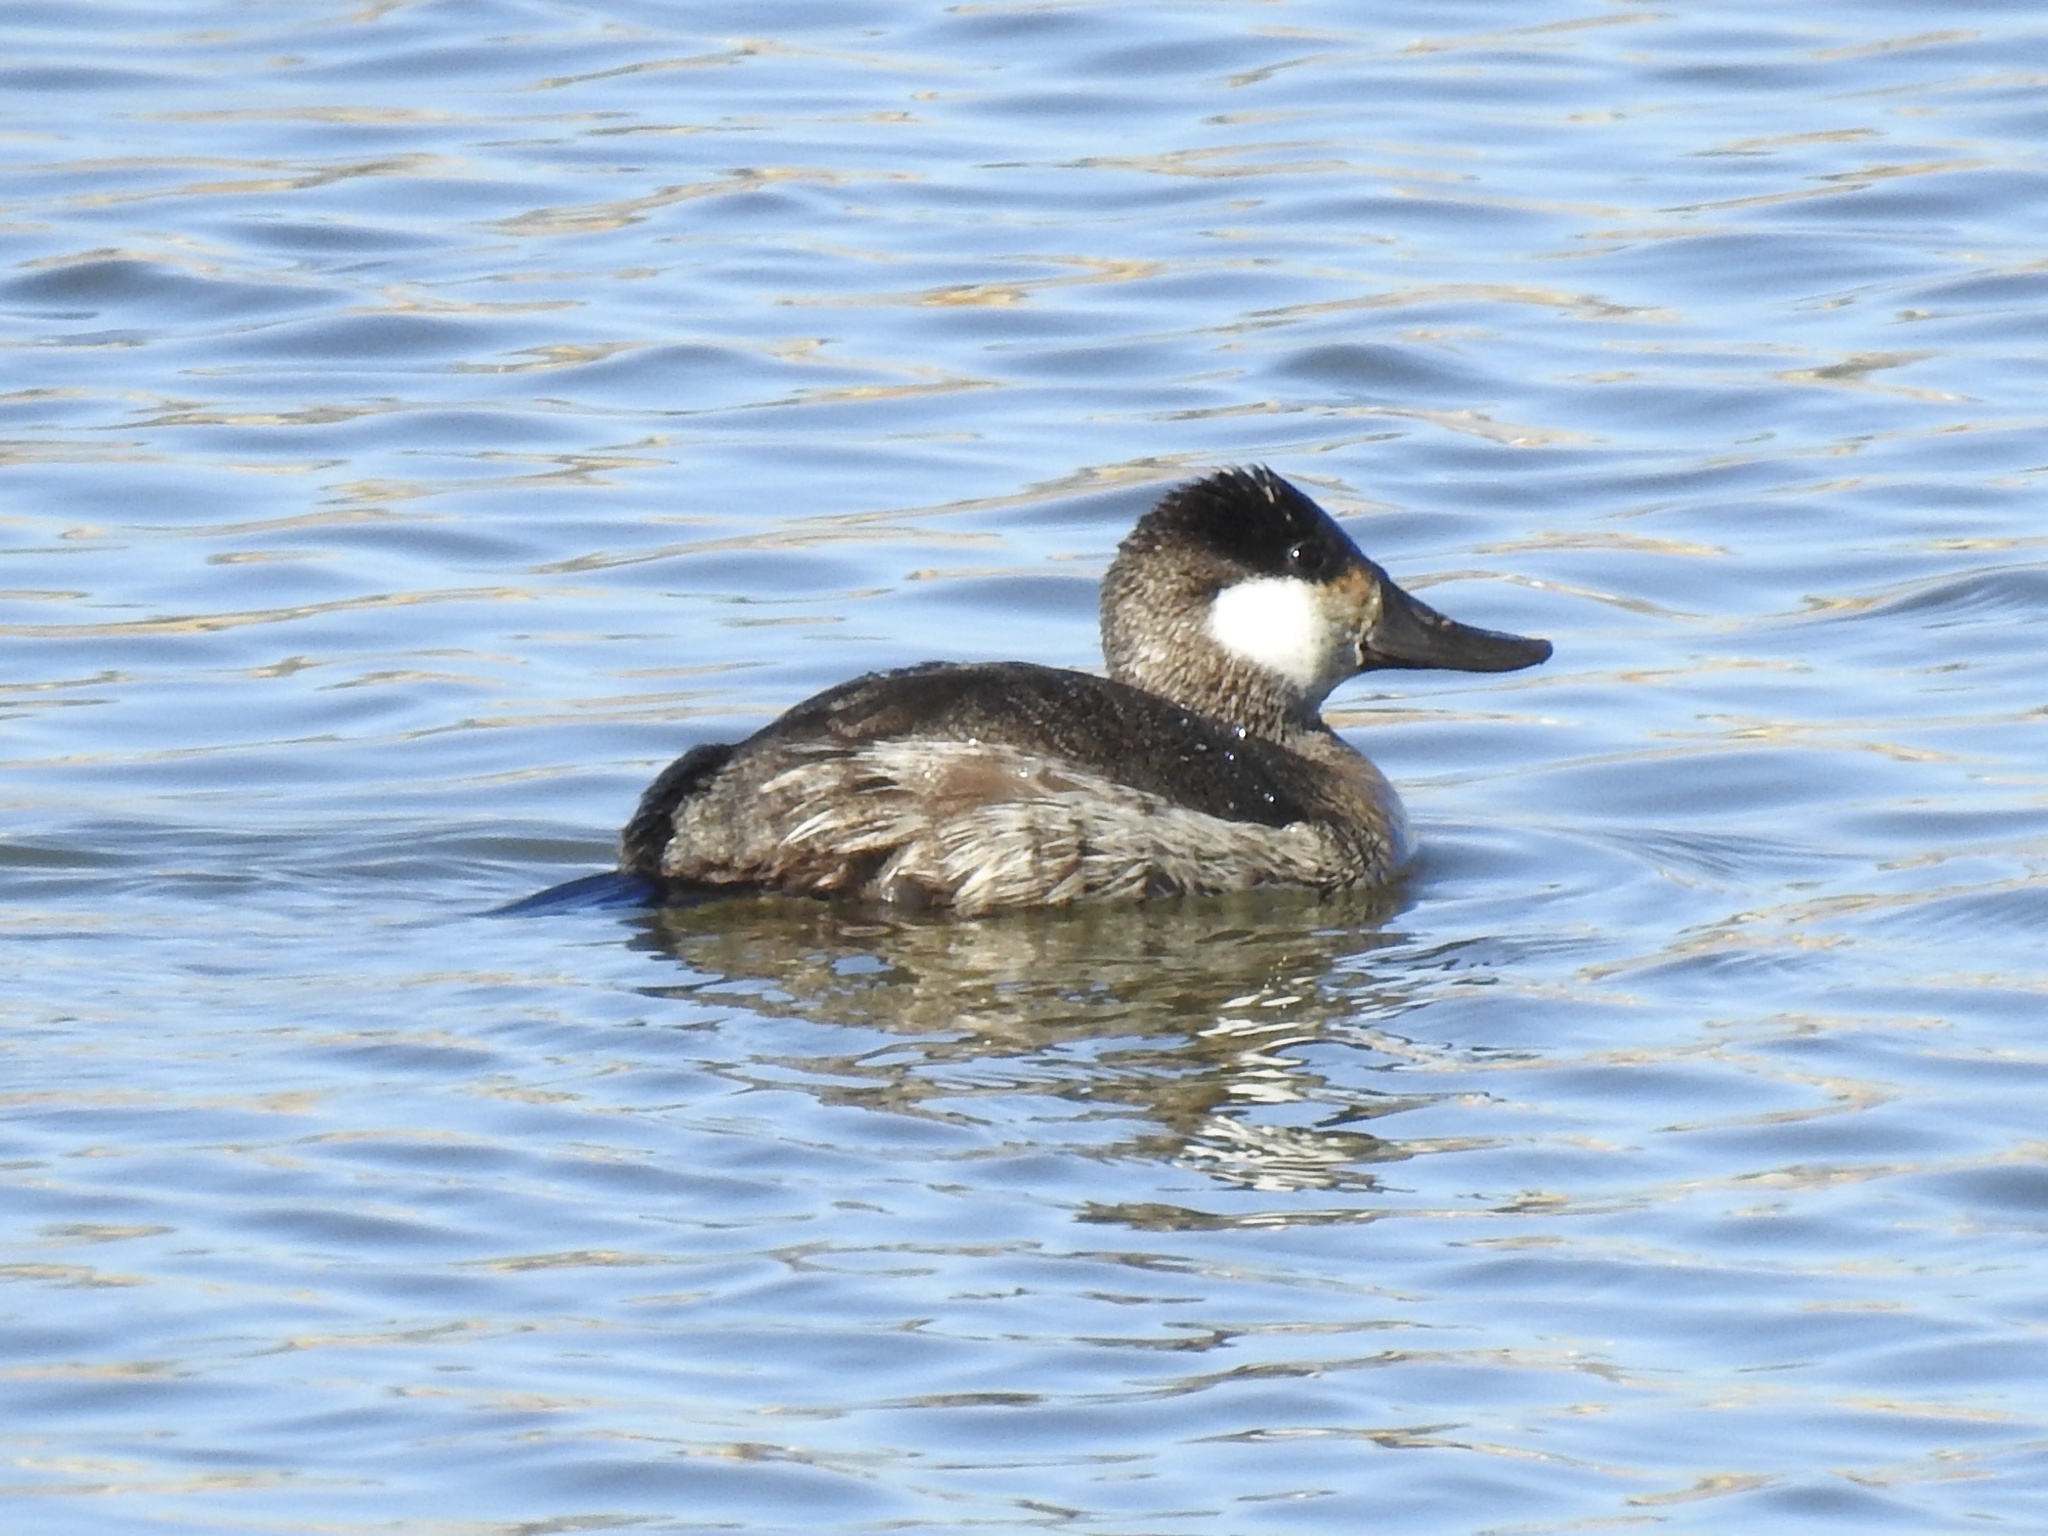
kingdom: Animalia
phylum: Chordata
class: Aves
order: Anseriformes
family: Anatidae
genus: Oxyura
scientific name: Oxyura jamaicensis
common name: Ruddy duck
